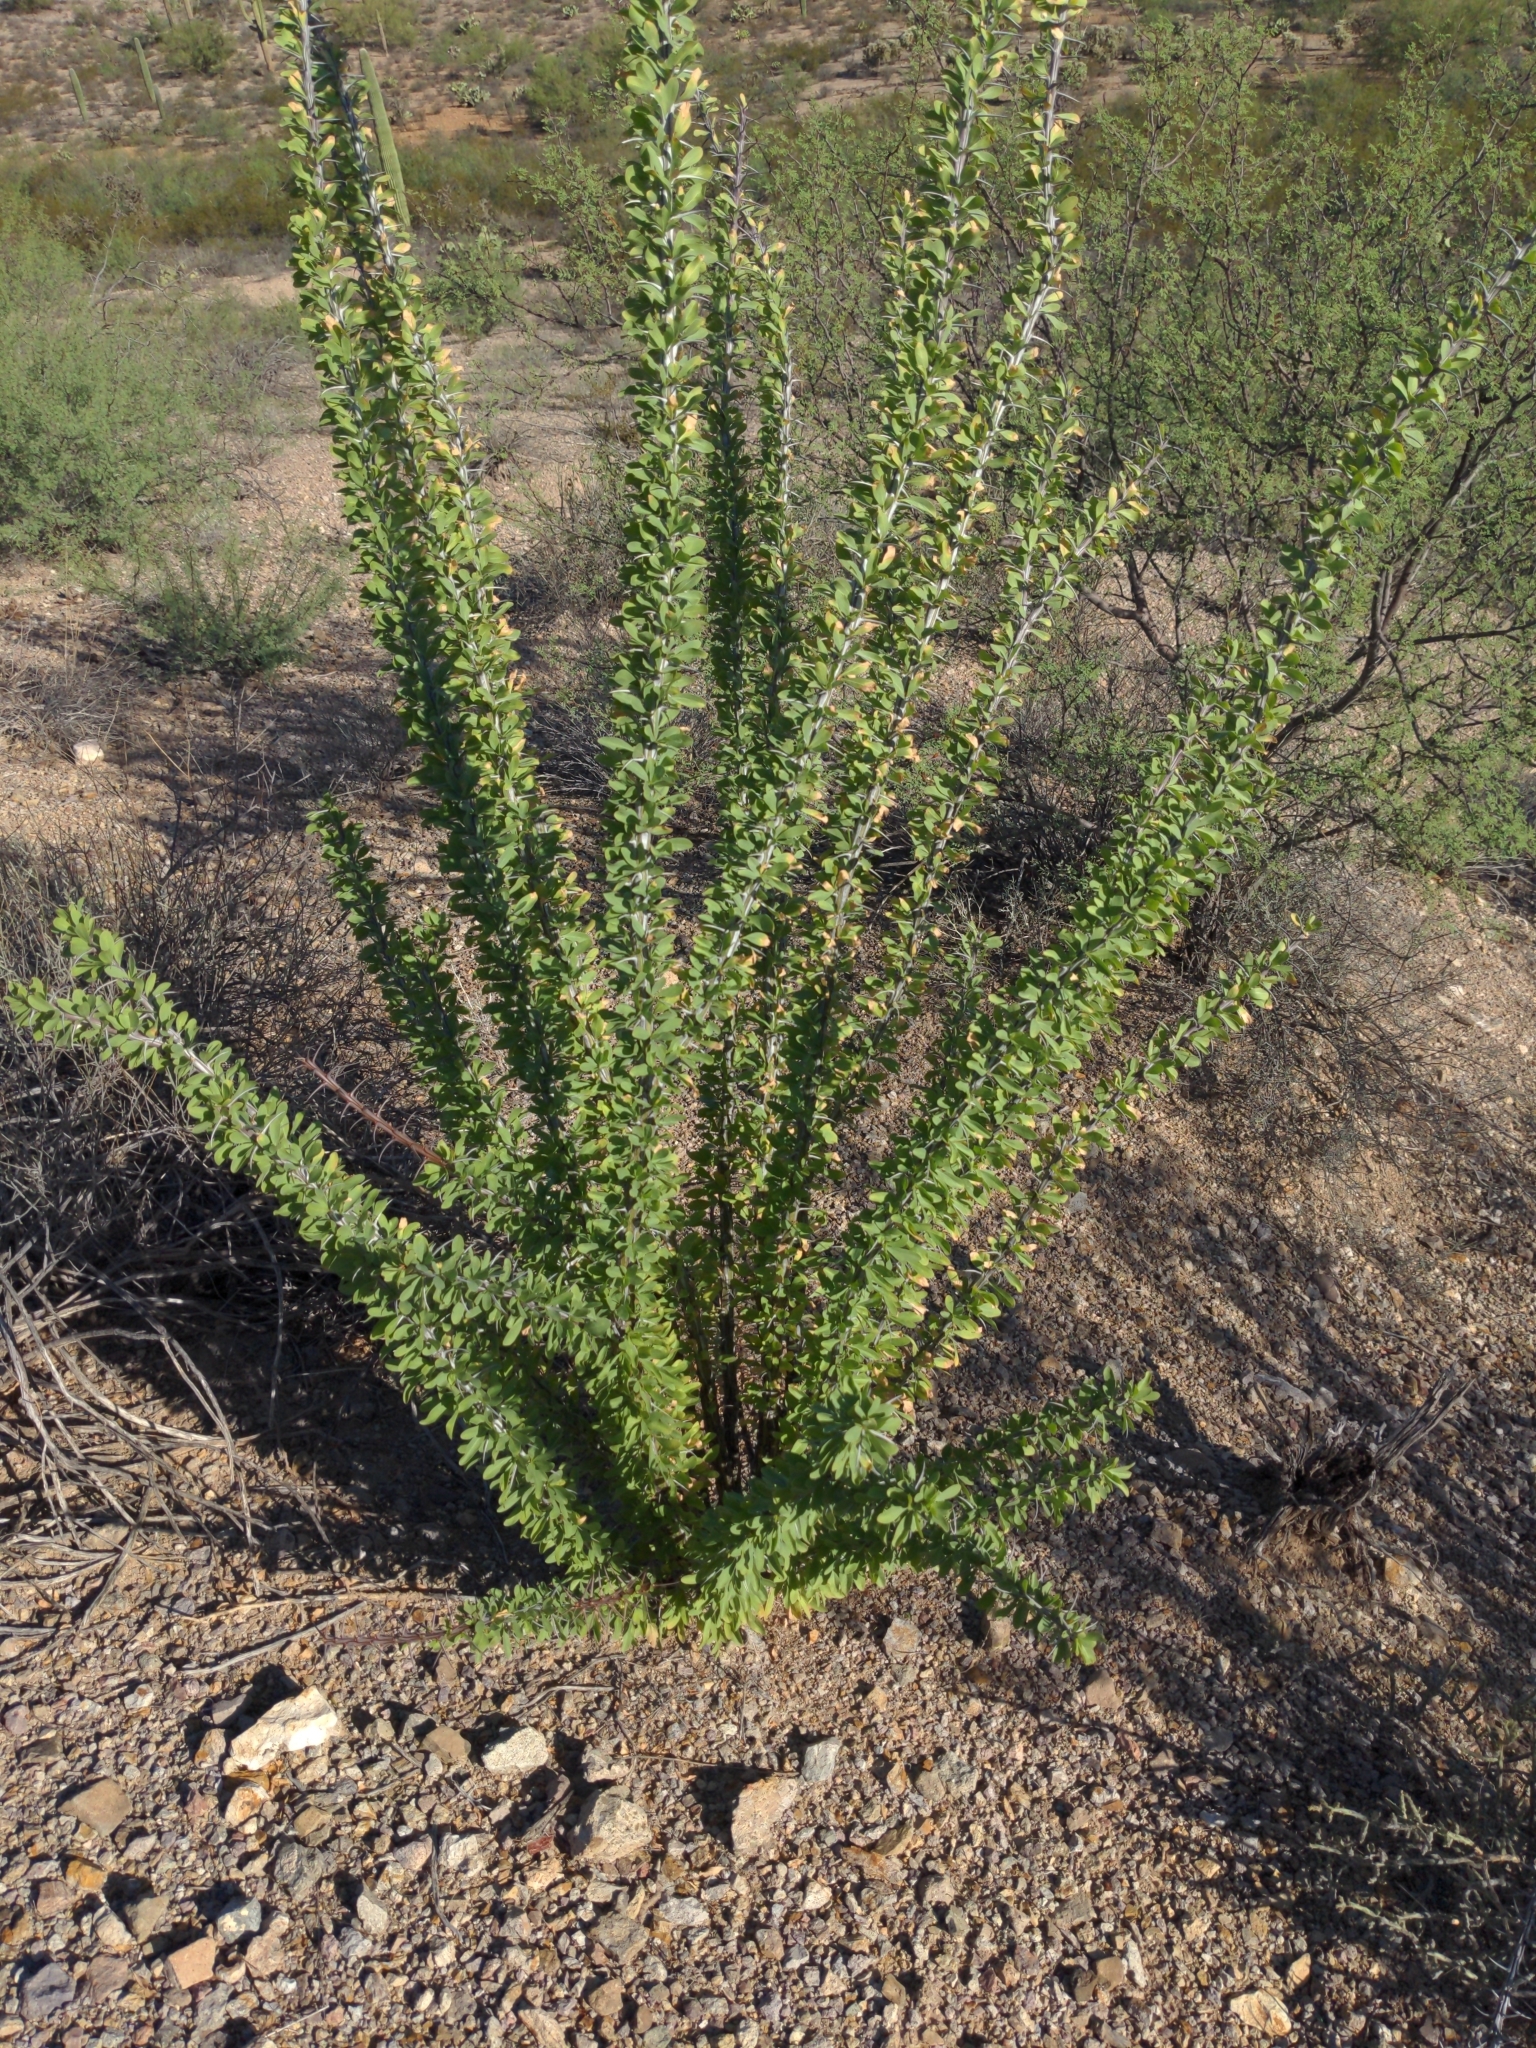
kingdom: Plantae
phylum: Tracheophyta
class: Magnoliopsida
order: Ericales
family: Fouquieriaceae
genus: Fouquieria
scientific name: Fouquieria splendens
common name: Vine-cactus
